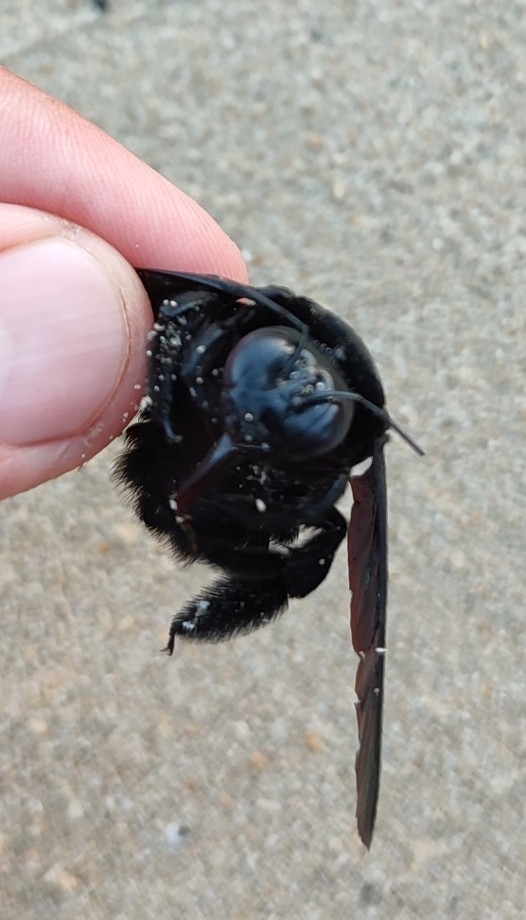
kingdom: Animalia
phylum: Arthropoda
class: Insecta
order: Hymenoptera
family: Apidae
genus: Xylocopa
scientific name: Xylocopa latipes
